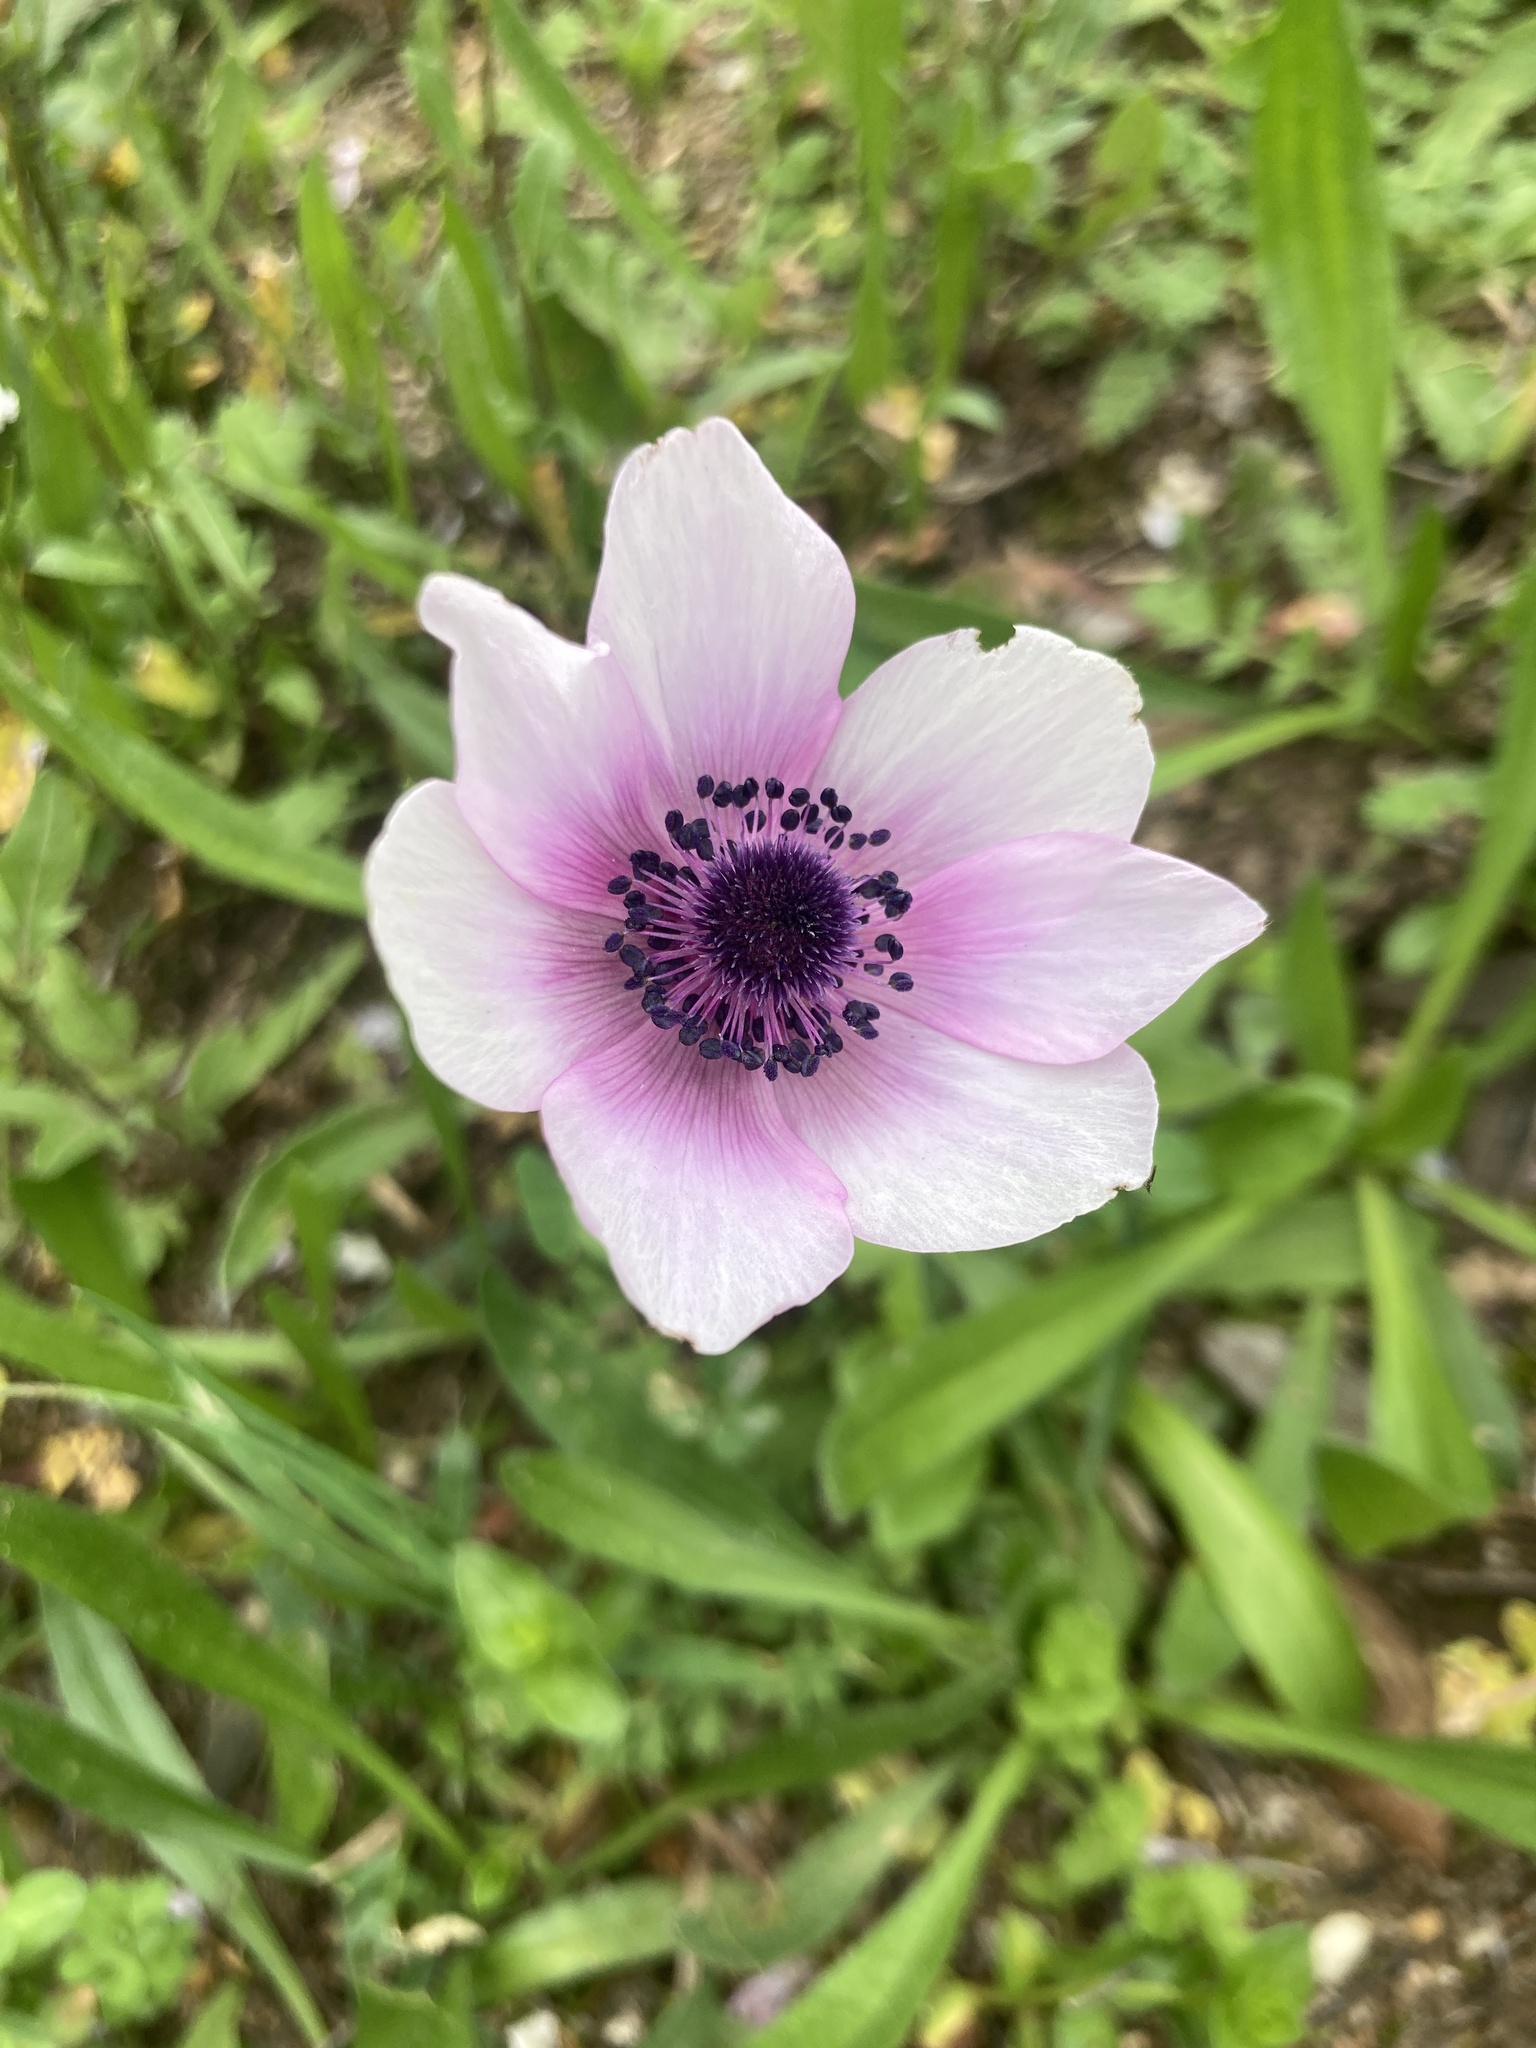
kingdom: Plantae
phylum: Tracheophyta
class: Magnoliopsida
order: Ranunculales
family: Ranunculaceae
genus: Anemone
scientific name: Anemone pavonina
